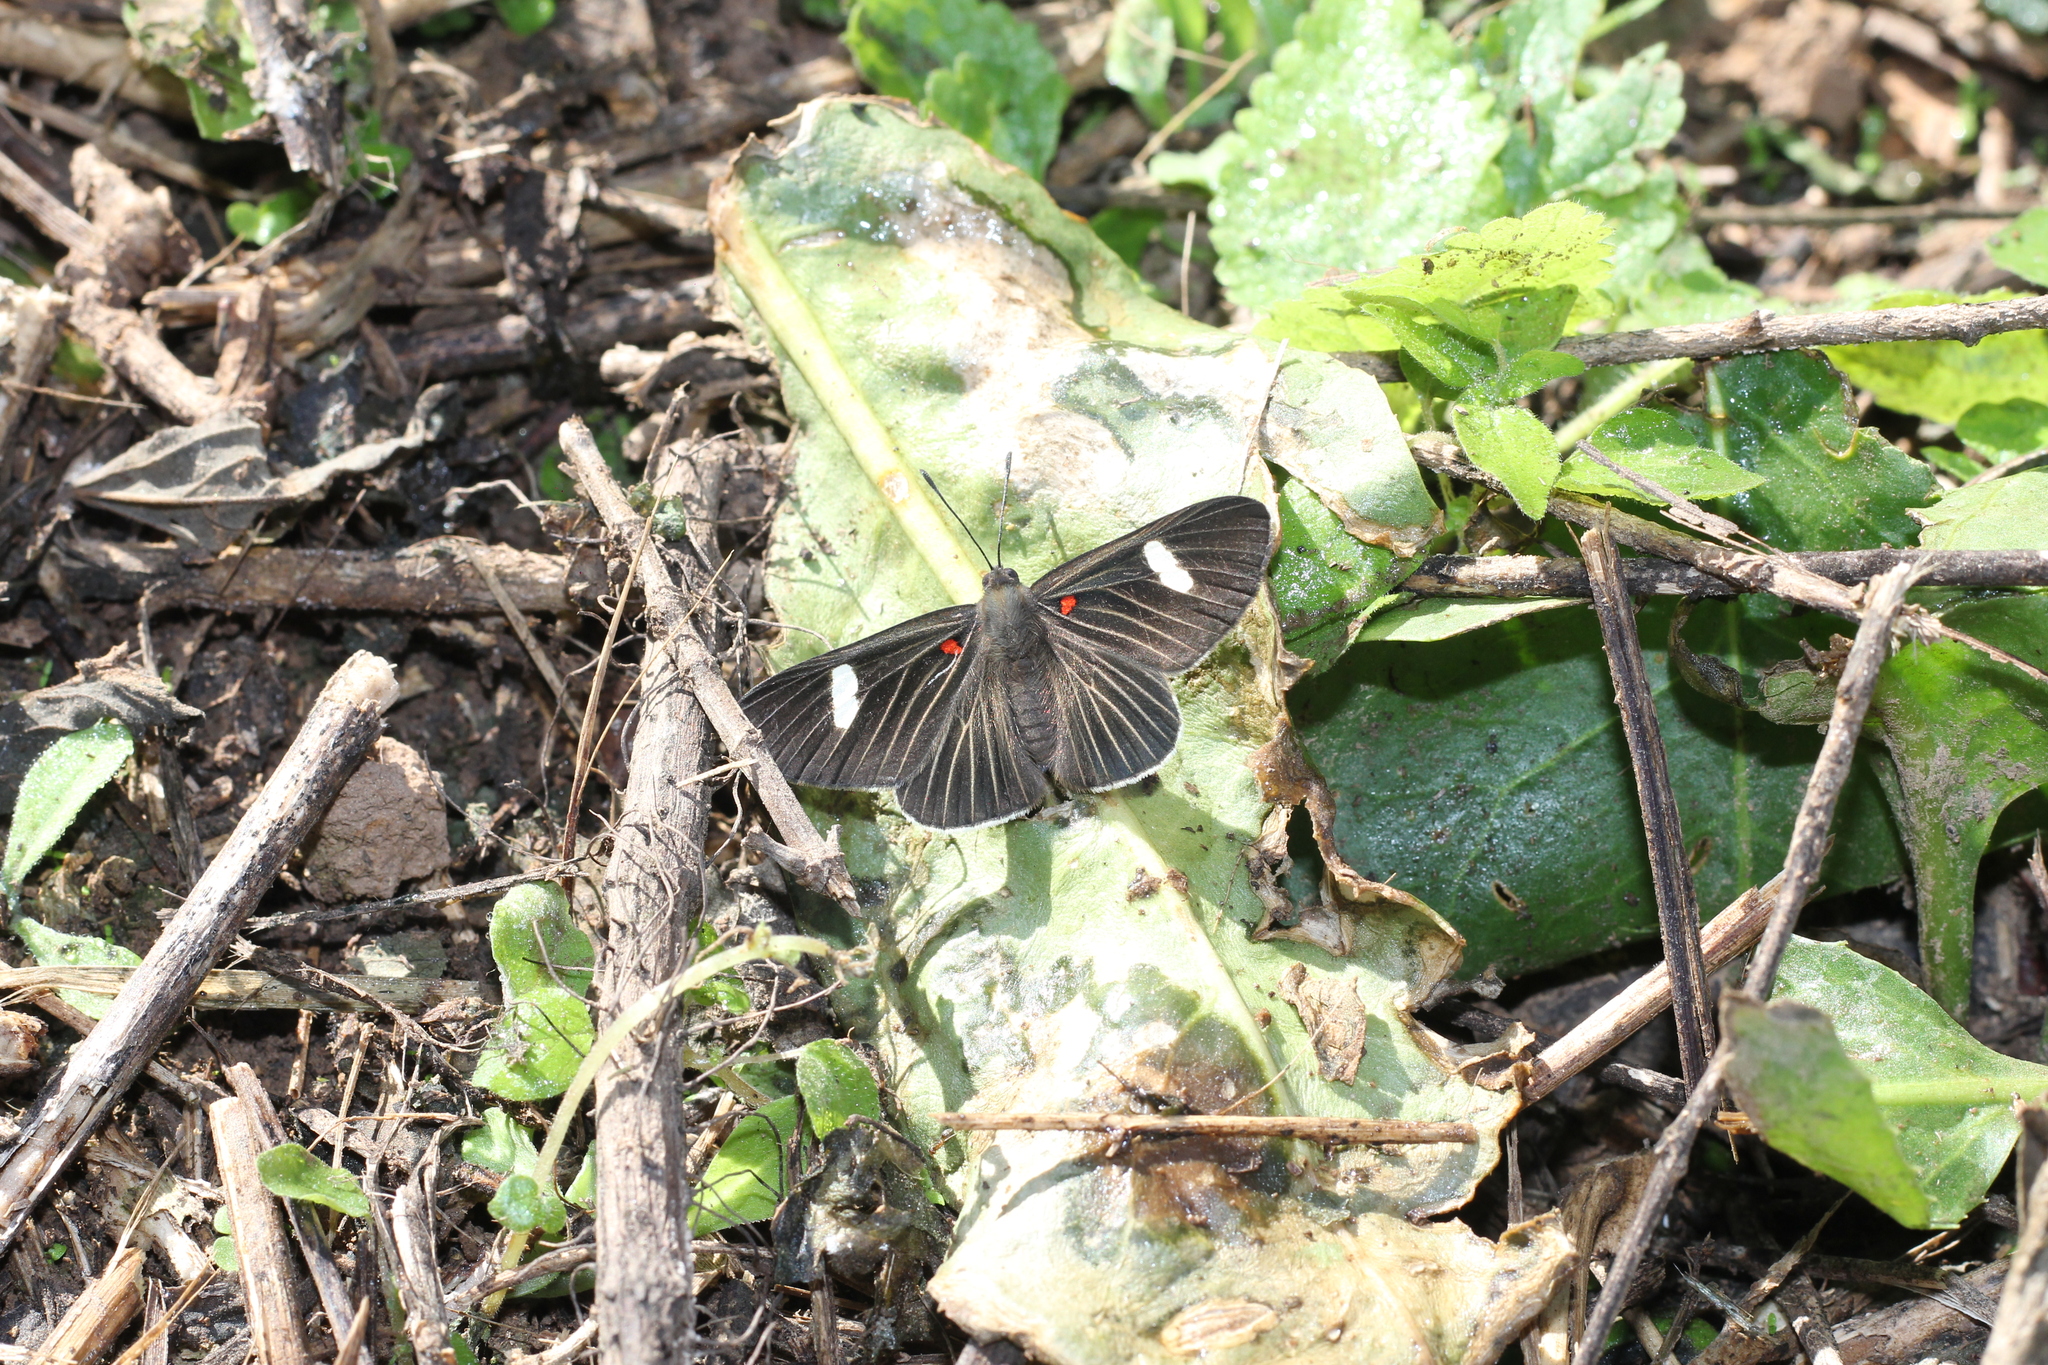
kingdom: Animalia
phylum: Arthropoda
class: Insecta
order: Lepidoptera
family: Lycaenidae
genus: Melanis
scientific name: Melanis aegates
